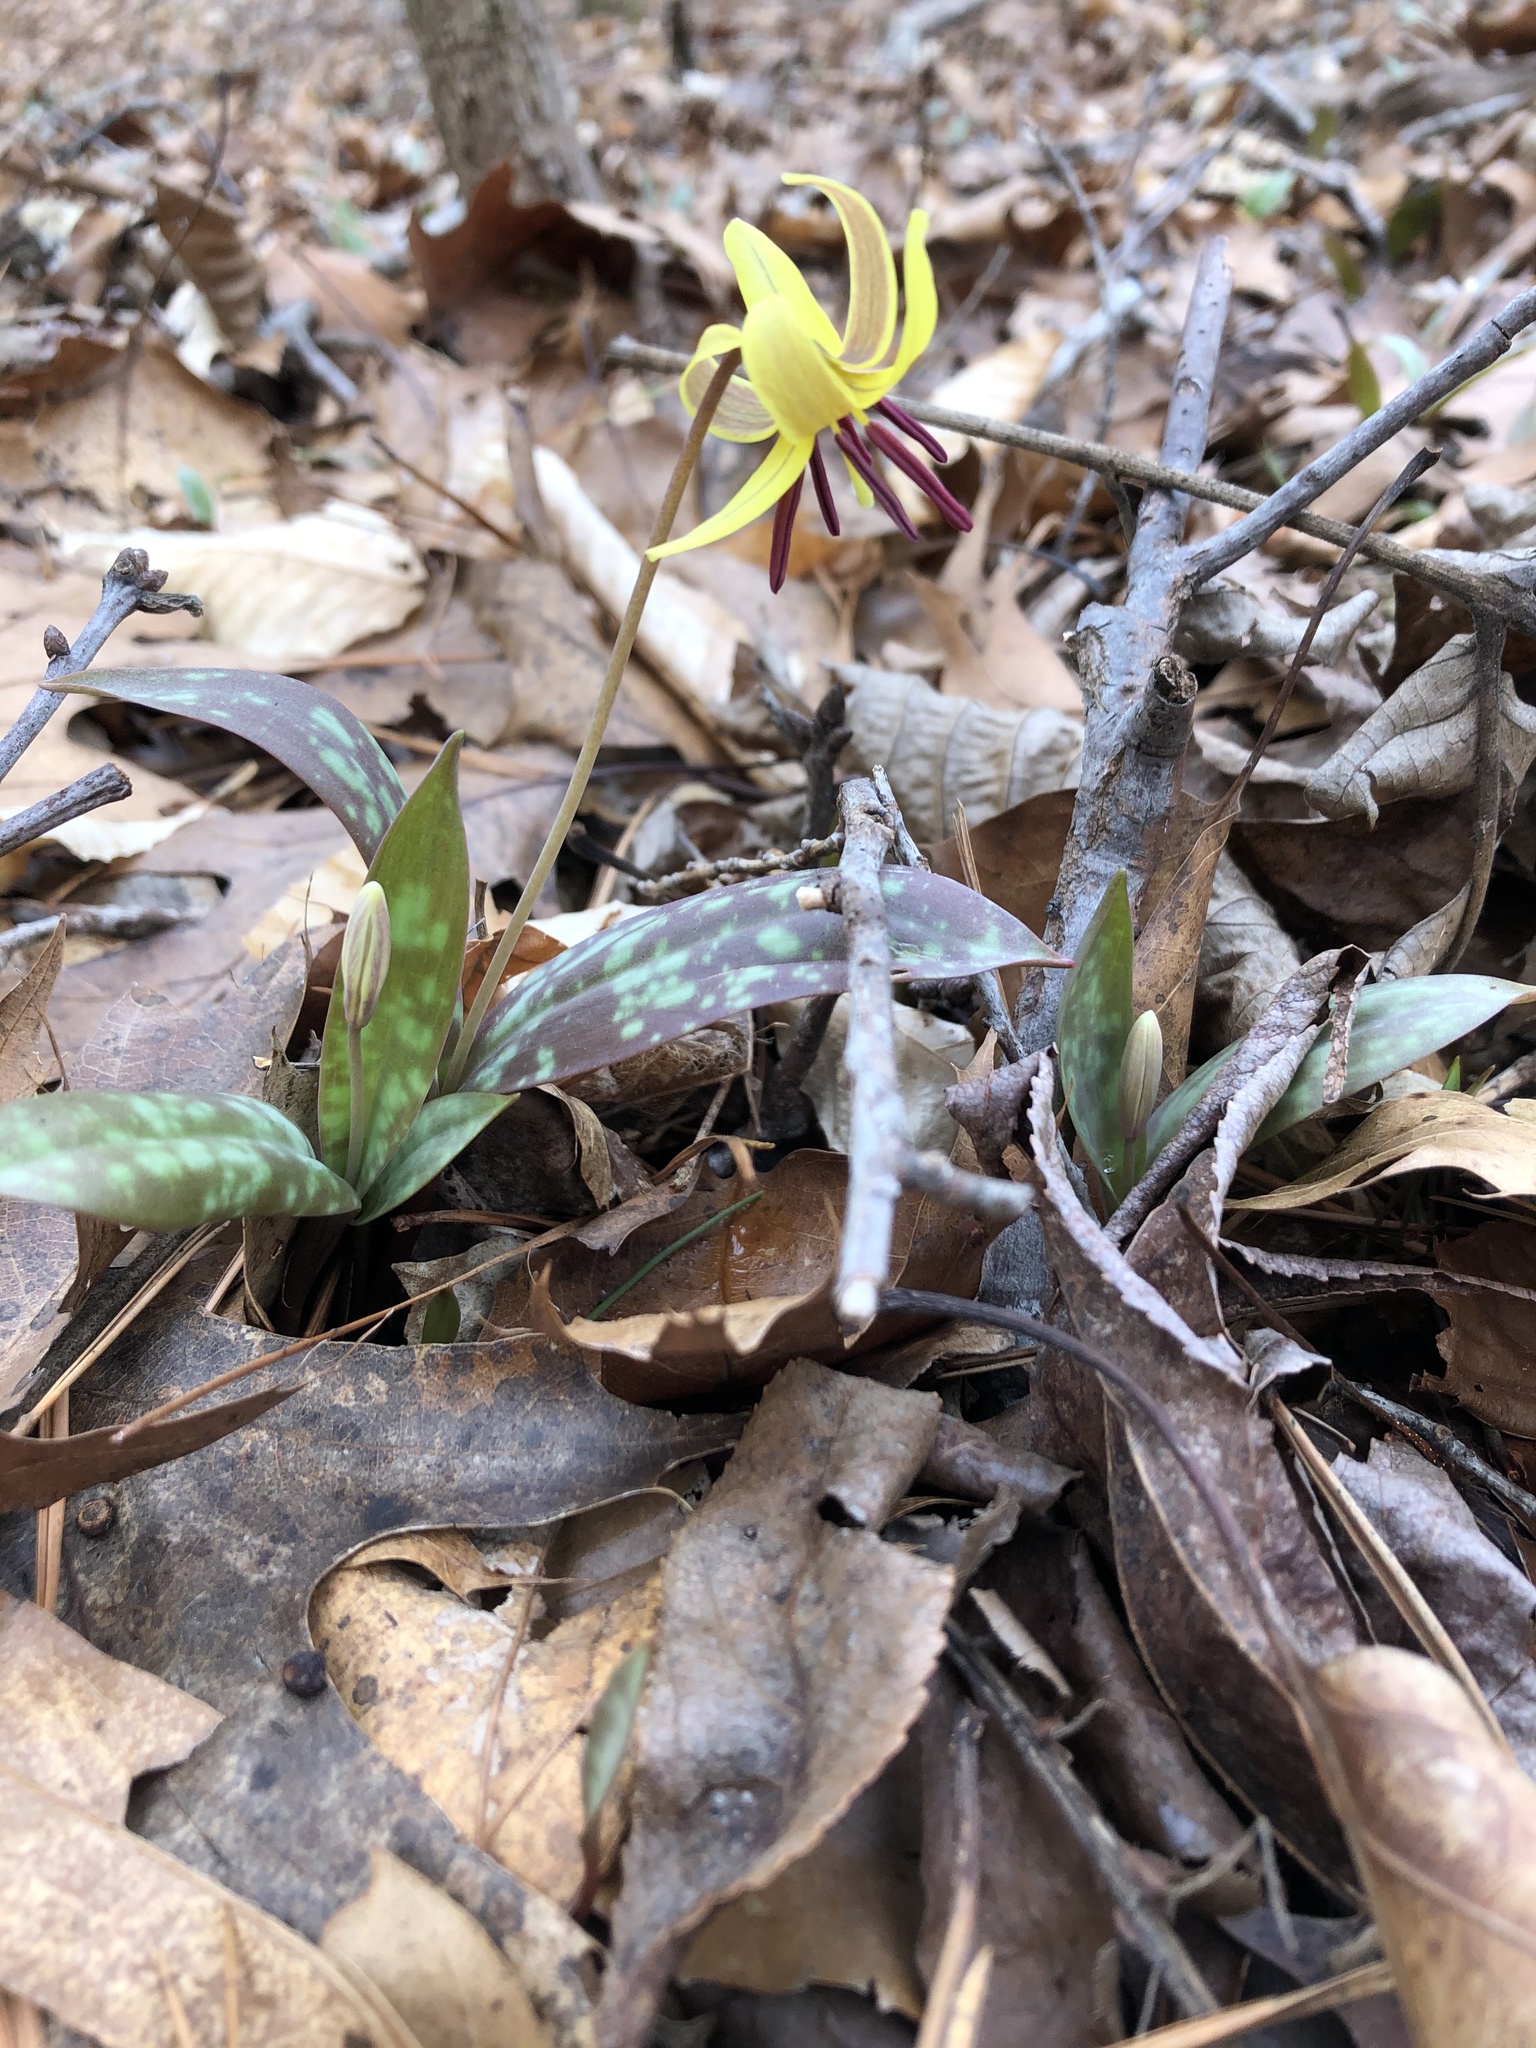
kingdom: Plantae
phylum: Tracheophyta
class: Liliopsida
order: Liliales
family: Liliaceae
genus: Erythronium
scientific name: Erythronium umbilicatum
